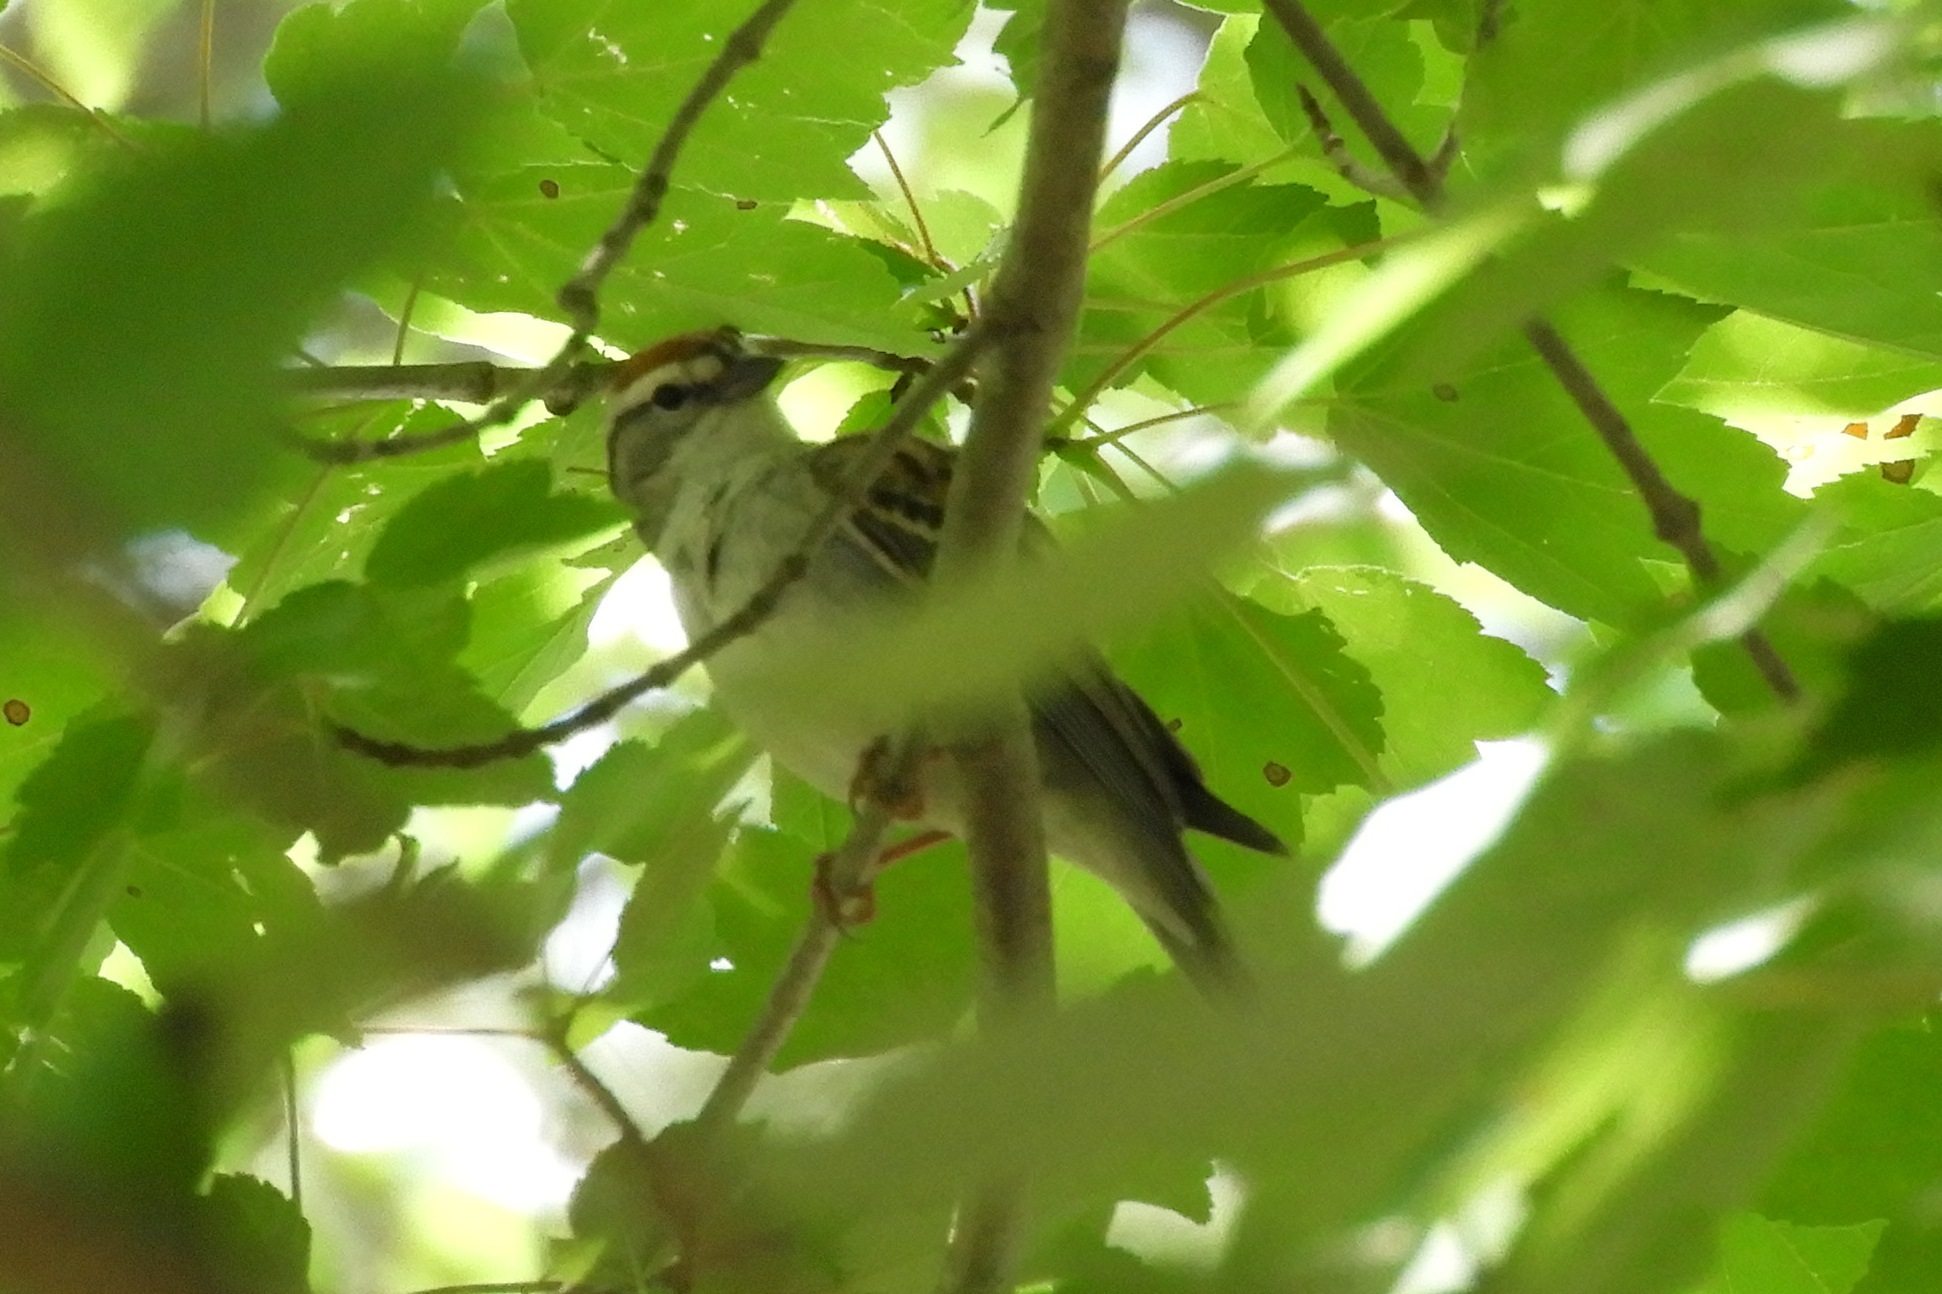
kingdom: Animalia
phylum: Chordata
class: Aves
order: Passeriformes
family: Passerellidae
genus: Spizella
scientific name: Spizella passerina
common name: Chipping sparrow
